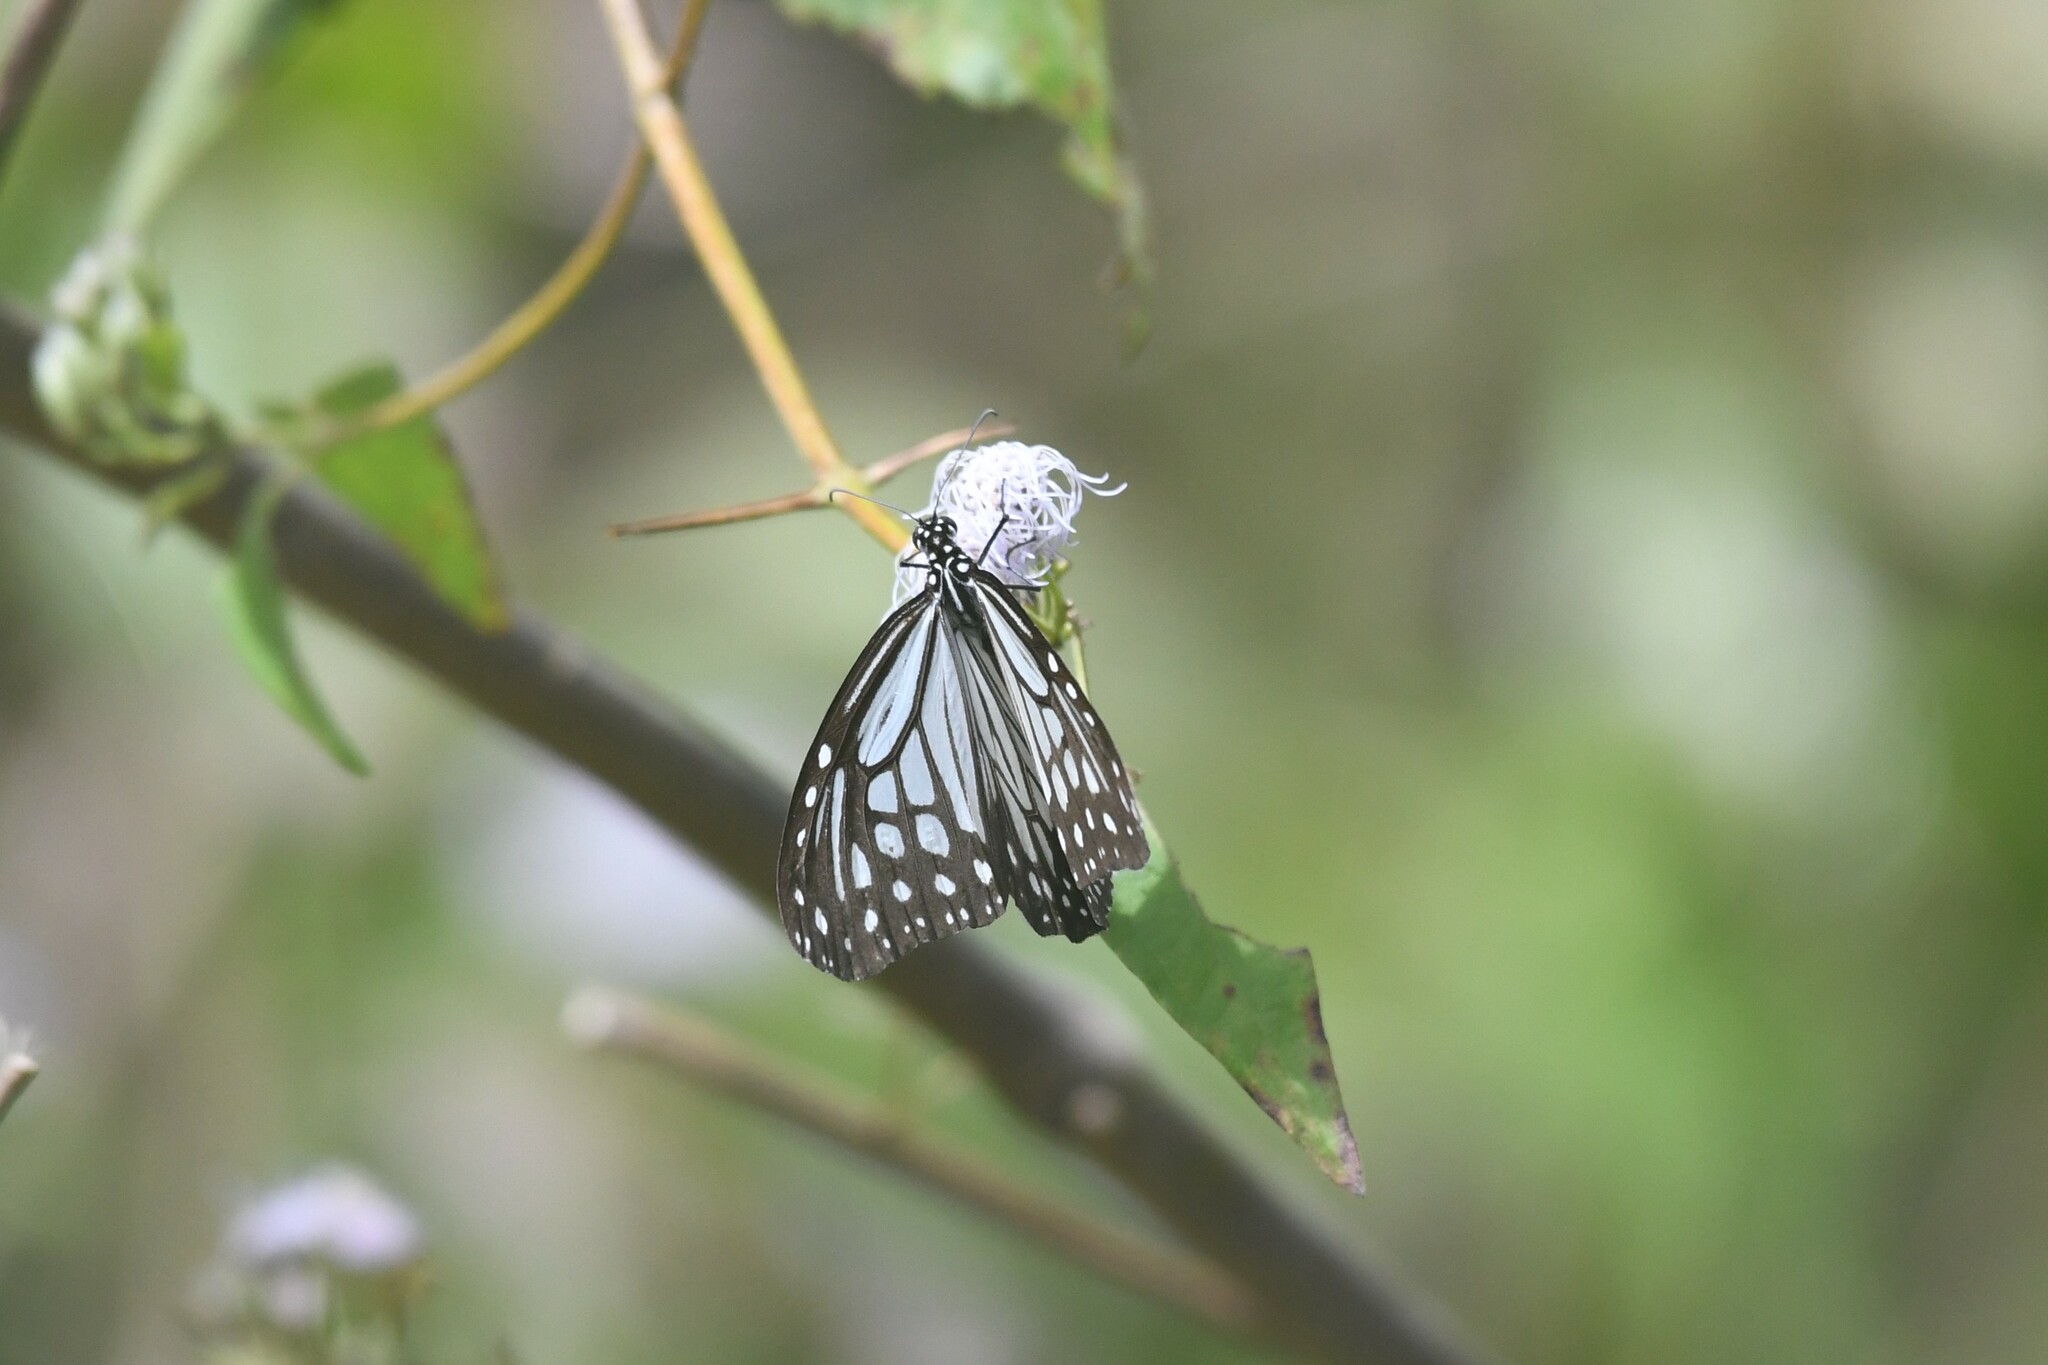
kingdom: Animalia
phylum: Arthropoda
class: Insecta
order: Lepidoptera
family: Nymphalidae
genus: Parantica
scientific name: Parantica aglea
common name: Glassy tiger
